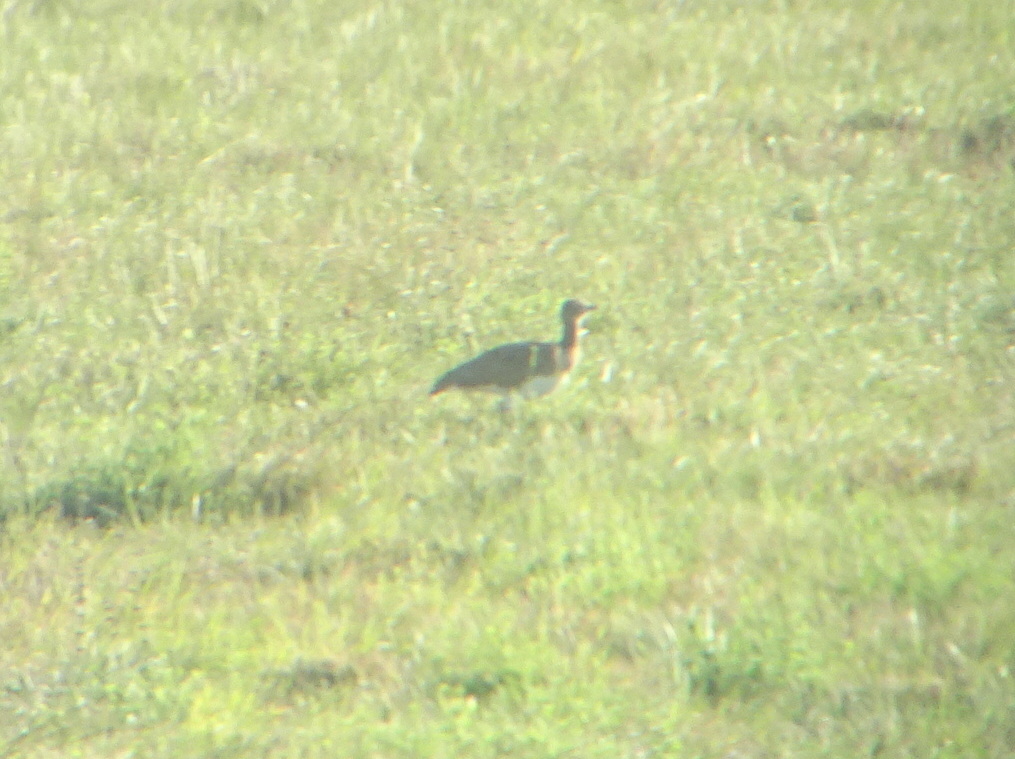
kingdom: Animalia
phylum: Chordata
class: Aves
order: Otidiformes
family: Otididae
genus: Tetrax
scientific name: Tetrax tetrax
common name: Little bustard
